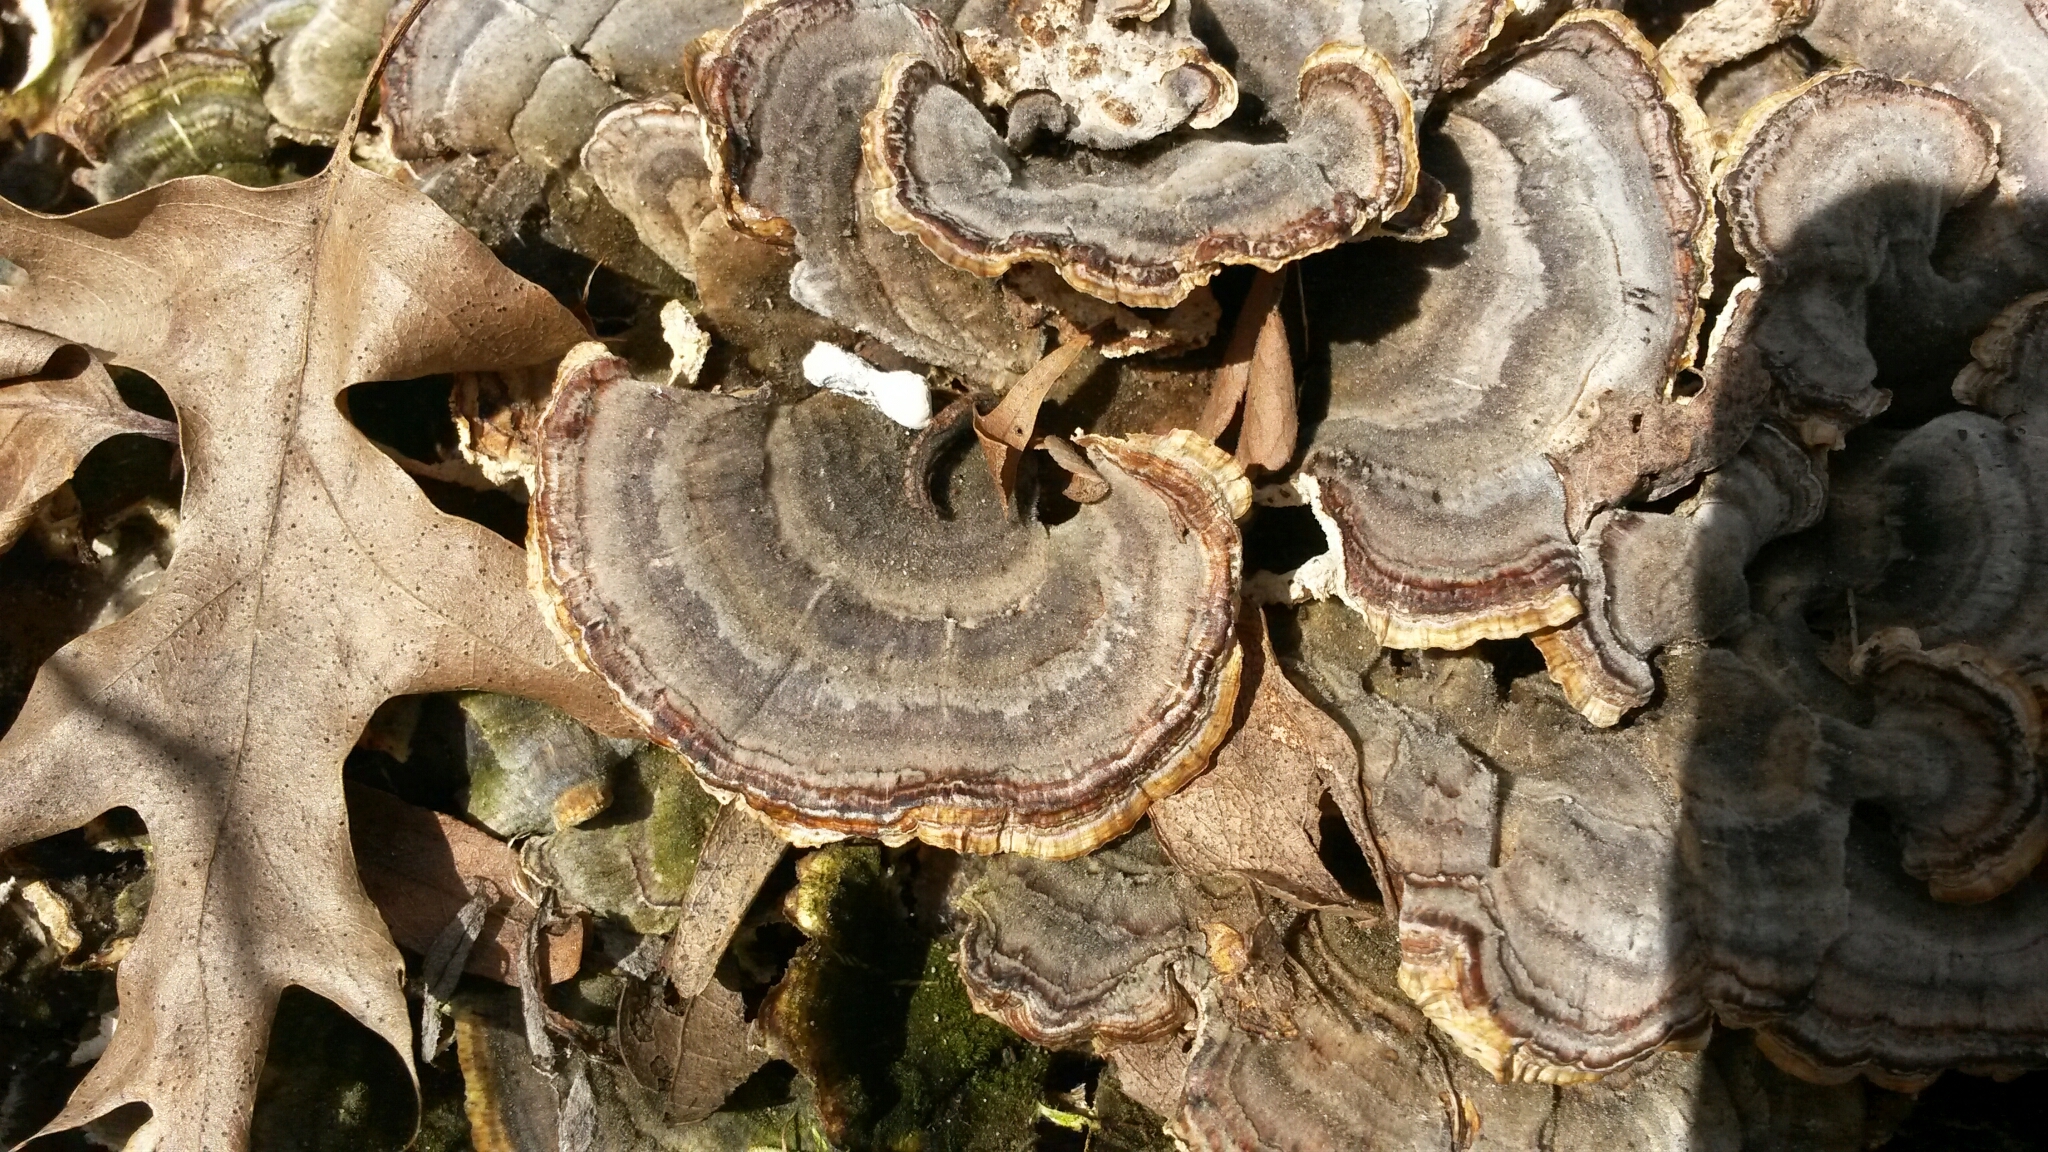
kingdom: Fungi
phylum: Basidiomycota
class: Agaricomycetes
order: Polyporales
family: Polyporaceae
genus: Trametes
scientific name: Trametes versicolor
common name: Turkeytail
